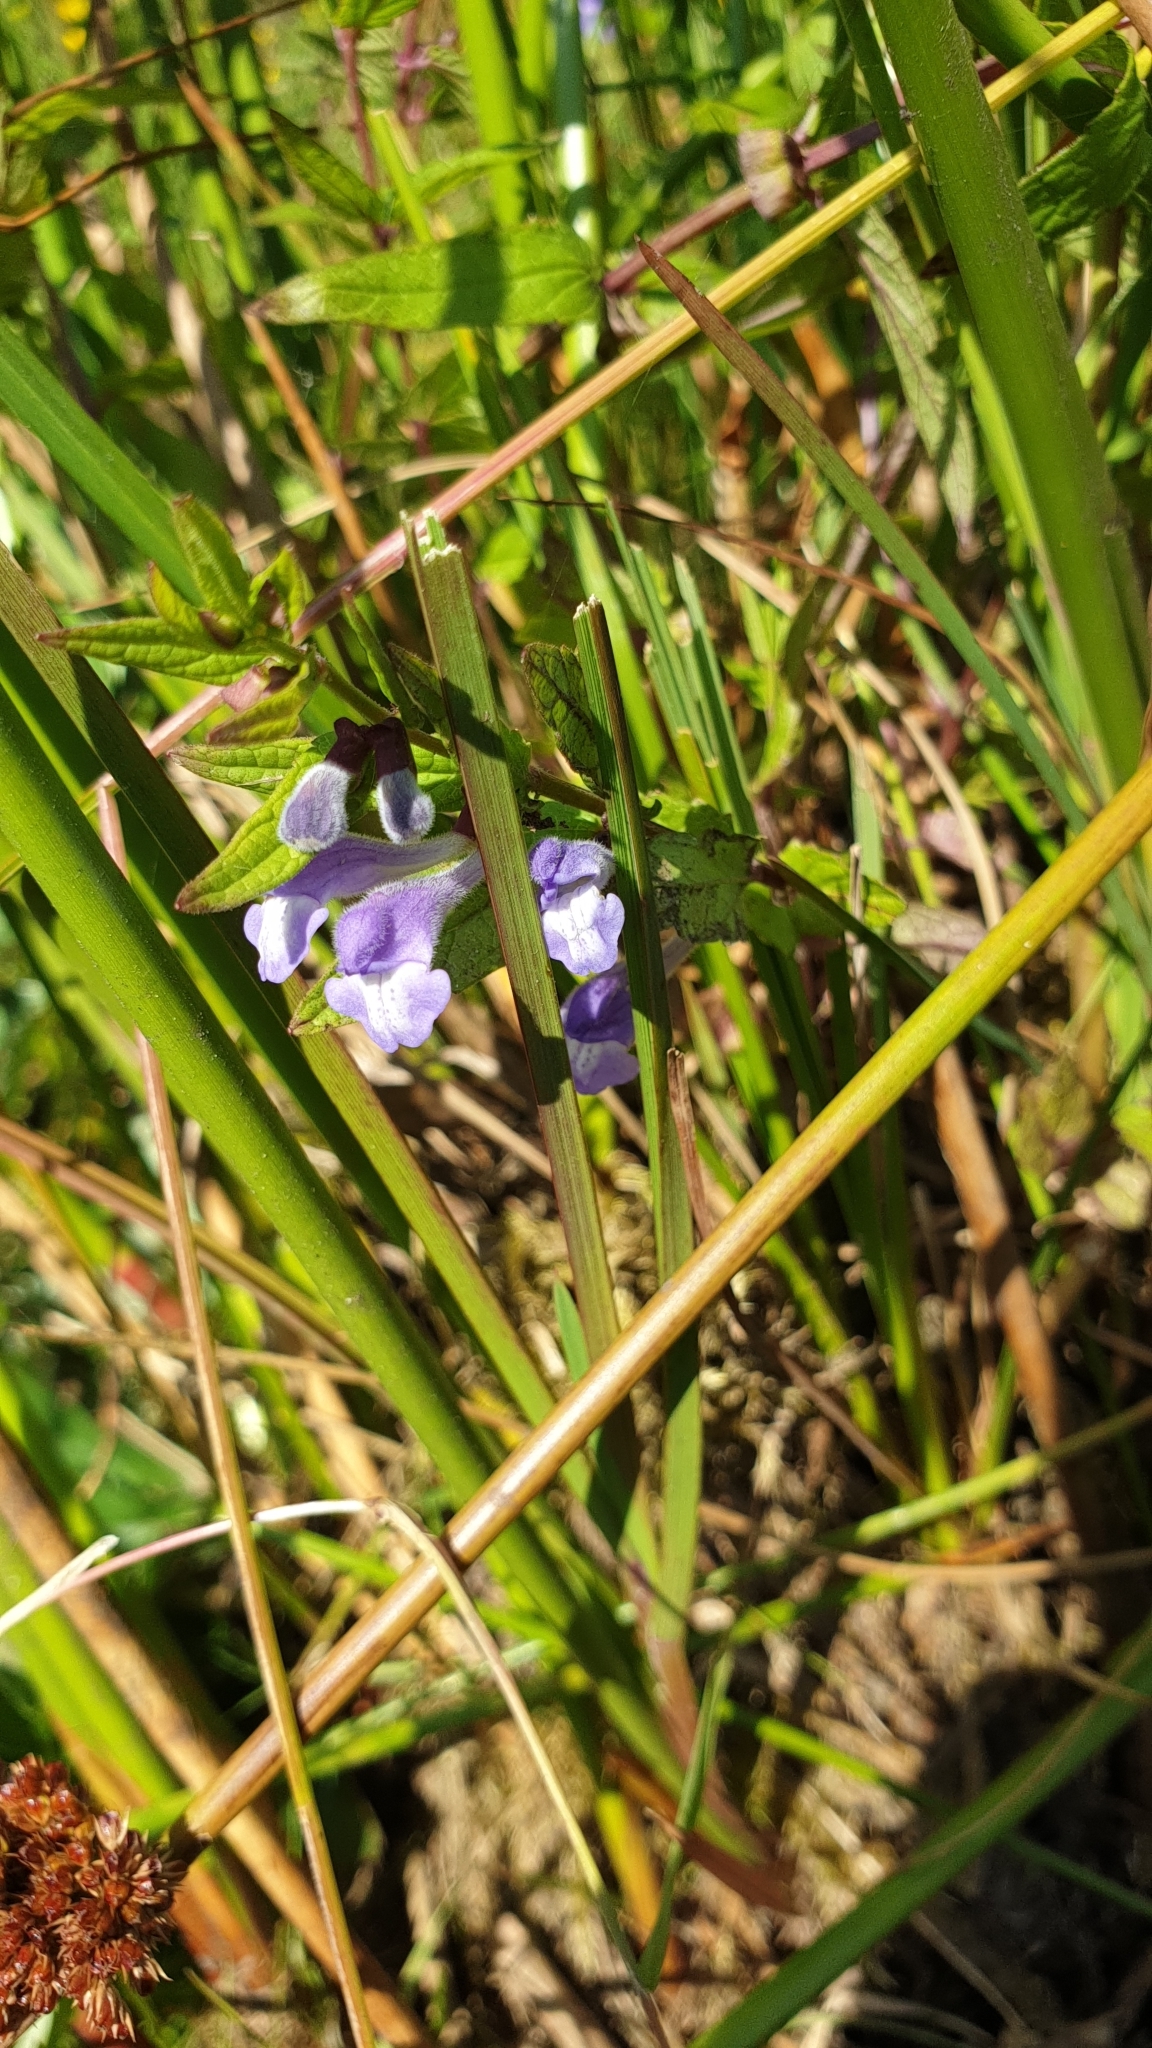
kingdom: Plantae
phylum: Tracheophyta
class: Magnoliopsida
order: Lamiales
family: Lamiaceae
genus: Scutellaria
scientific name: Scutellaria galericulata
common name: Skullcap
